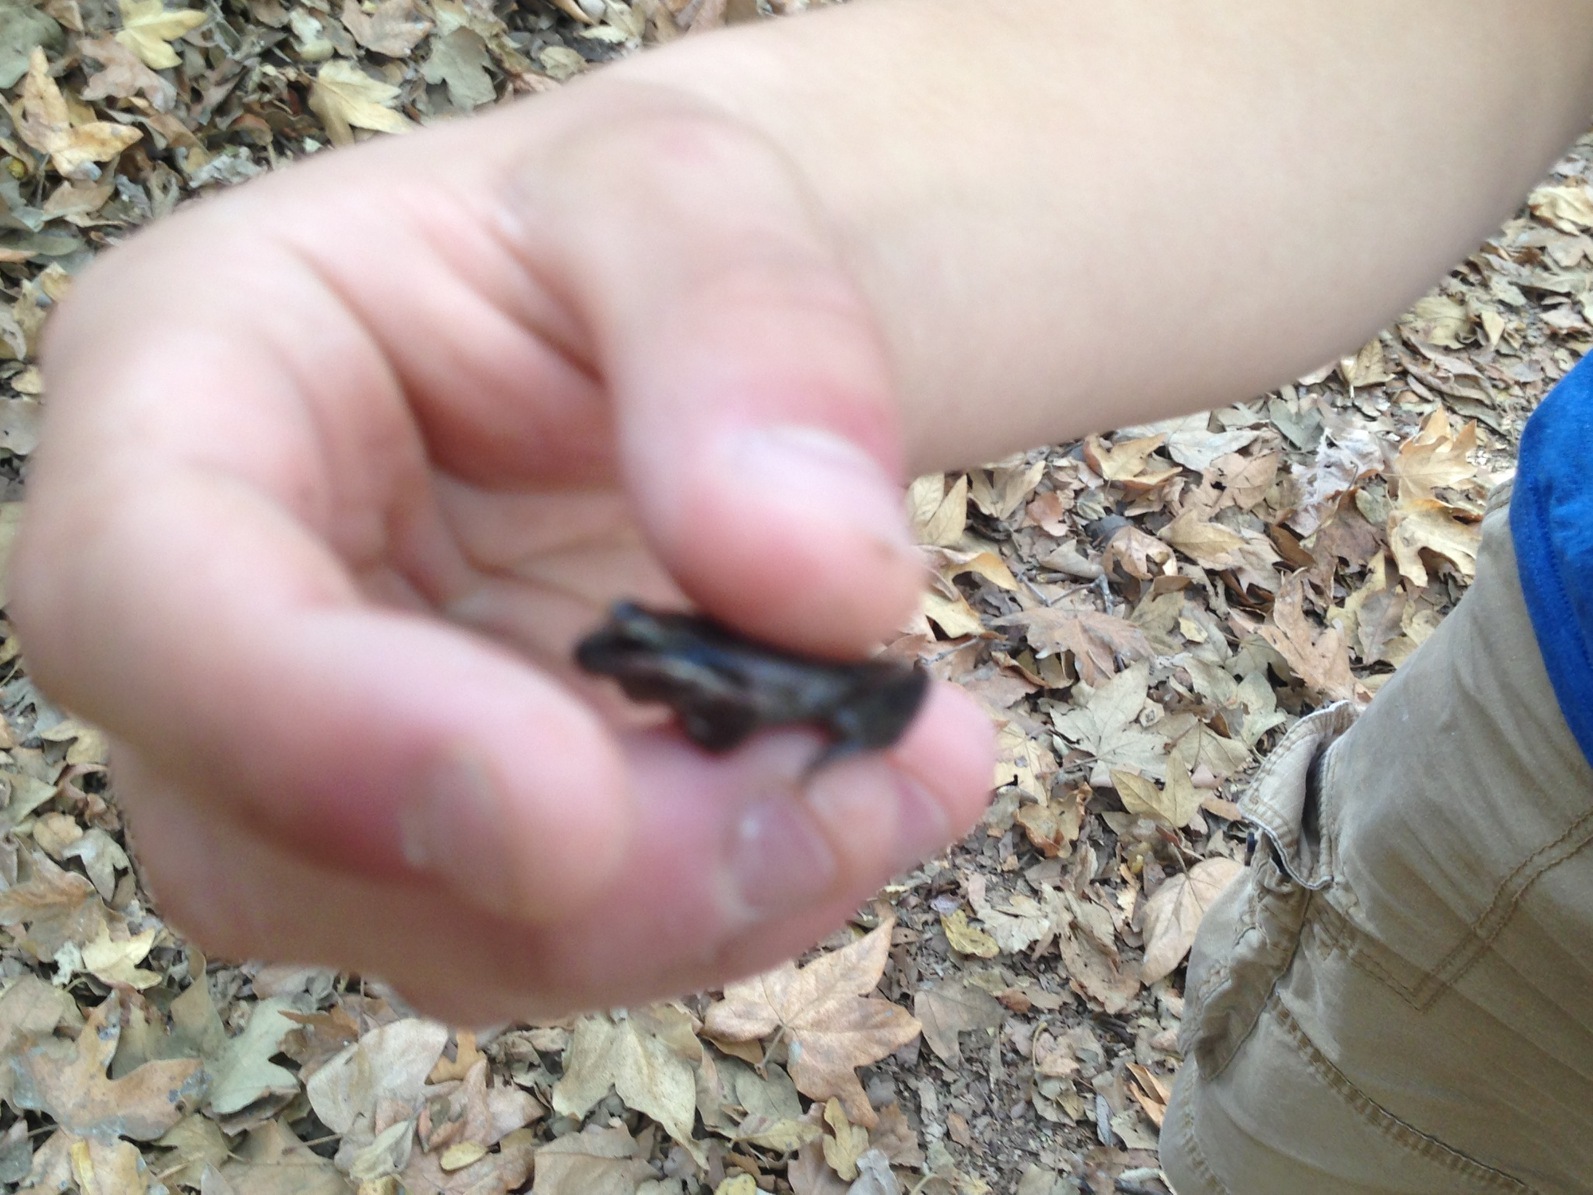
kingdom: Animalia
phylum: Chordata
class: Amphibia
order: Anura
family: Hylidae
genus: Pseudacris
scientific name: Pseudacris regilla
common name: Pacific chorus frog
